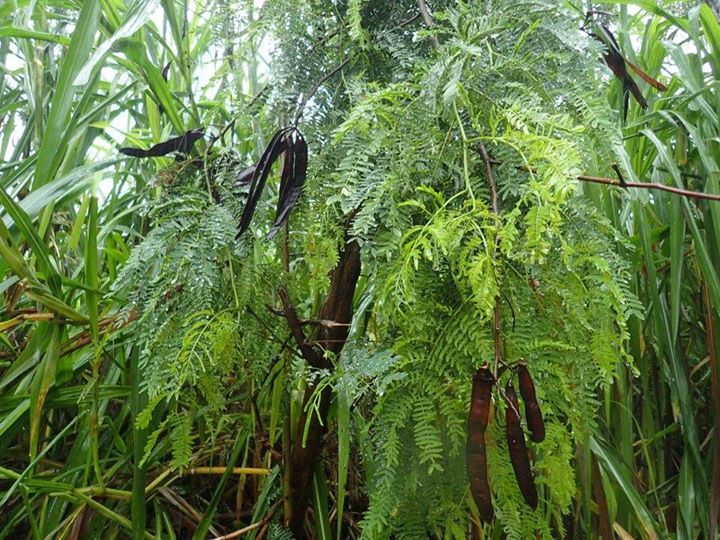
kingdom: Plantae
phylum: Tracheophyta
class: Magnoliopsida
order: Fabales
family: Fabaceae
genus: Leucaena
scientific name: Leucaena leucocephala
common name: White leadtree
